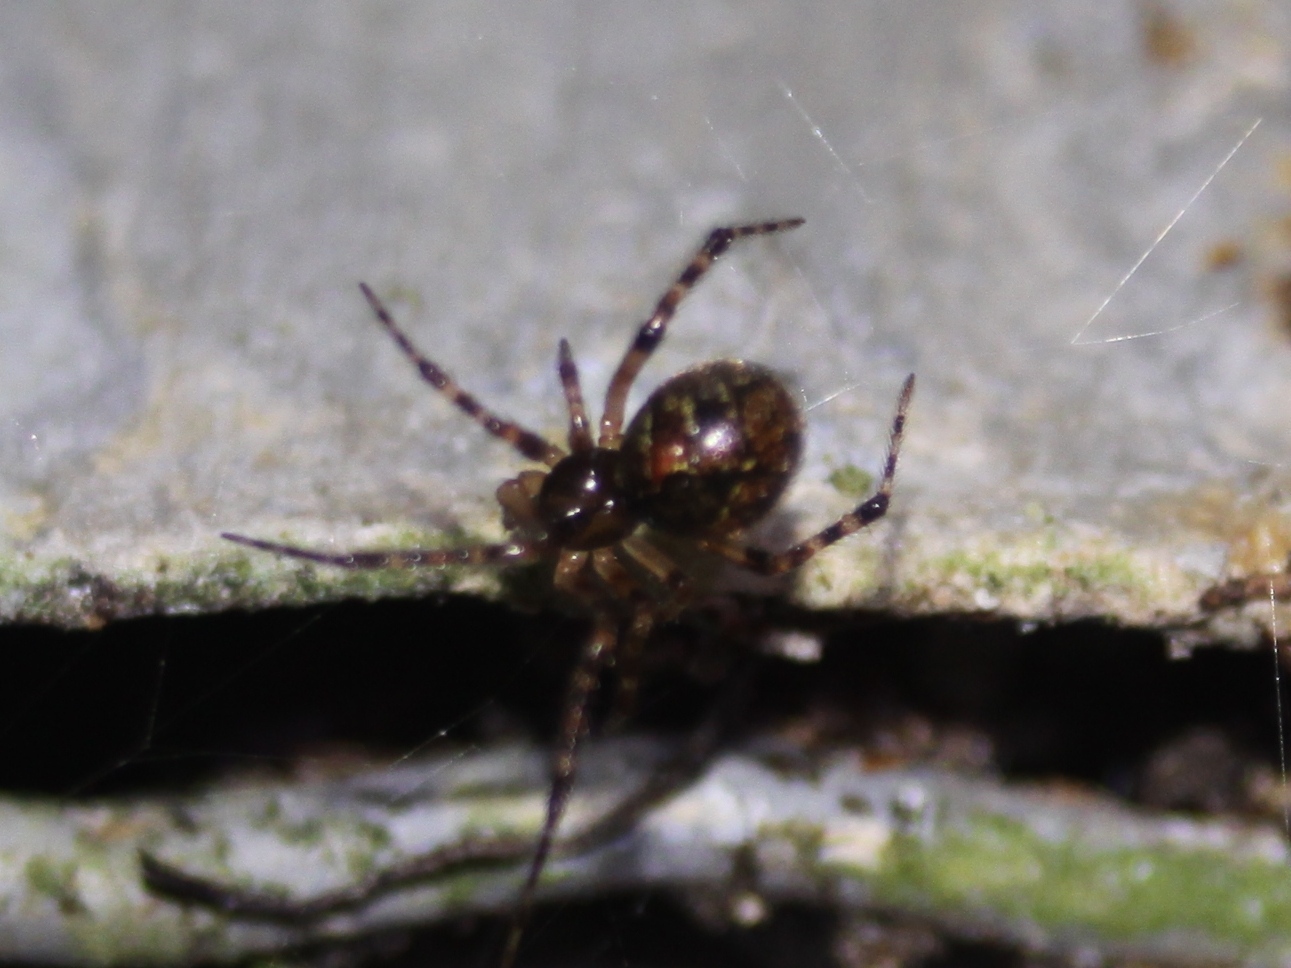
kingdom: Animalia
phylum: Arthropoda
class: Arachnida
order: Araneae
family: Theridiidae
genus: Cryptachaea
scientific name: Cryptachaea veruculata
